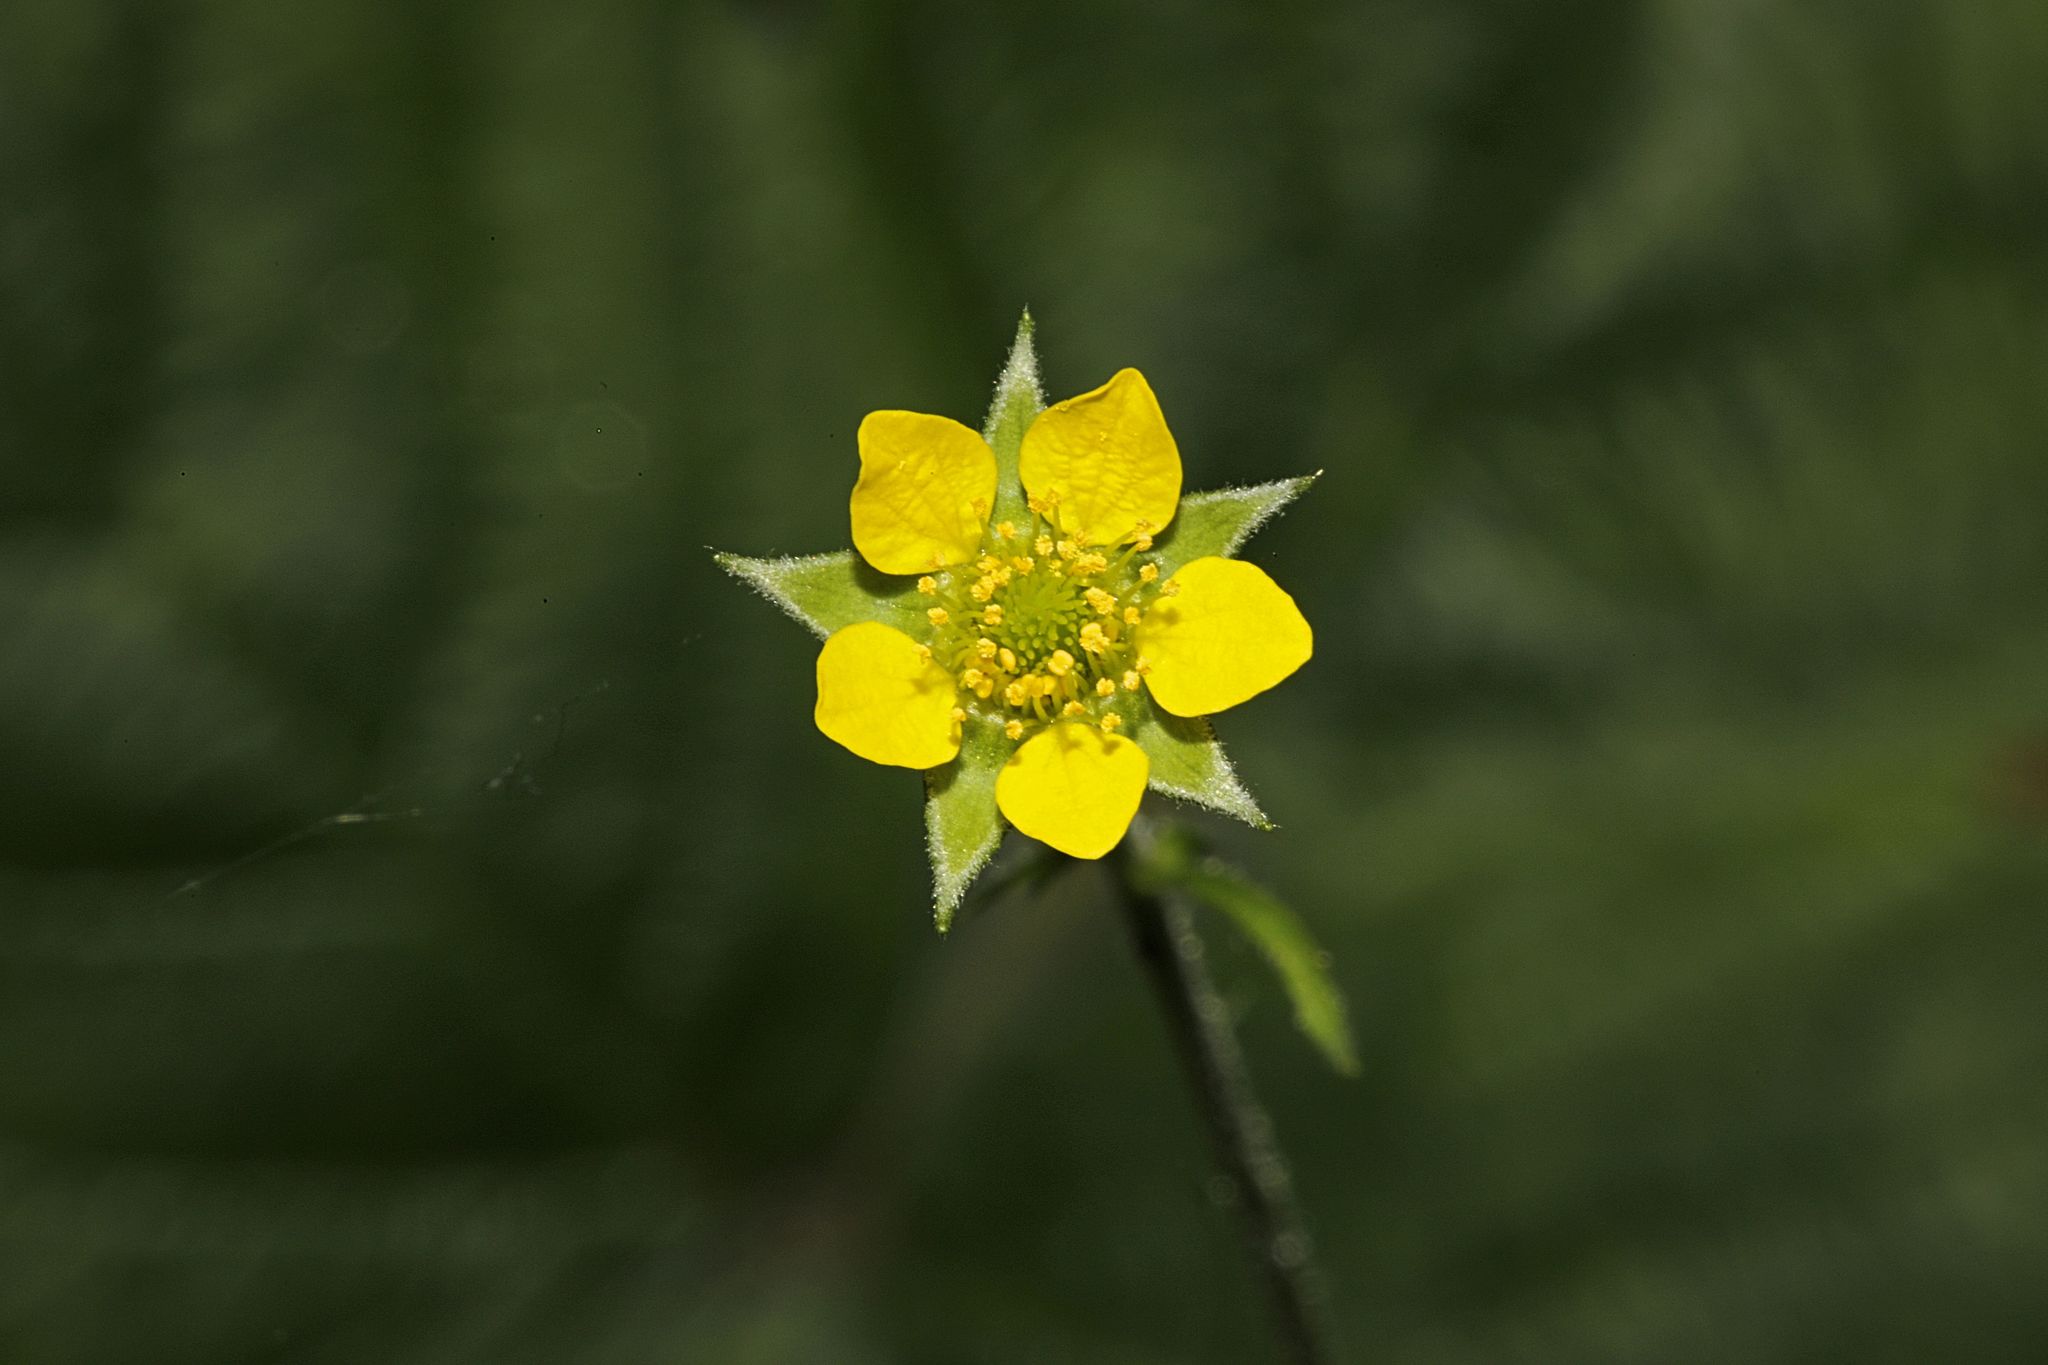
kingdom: Plantae
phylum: Tracheophyta
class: Magnoliopsida
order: Rosales
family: Rosaceae
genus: Geum
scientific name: Geum urbanum
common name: Wood avens
